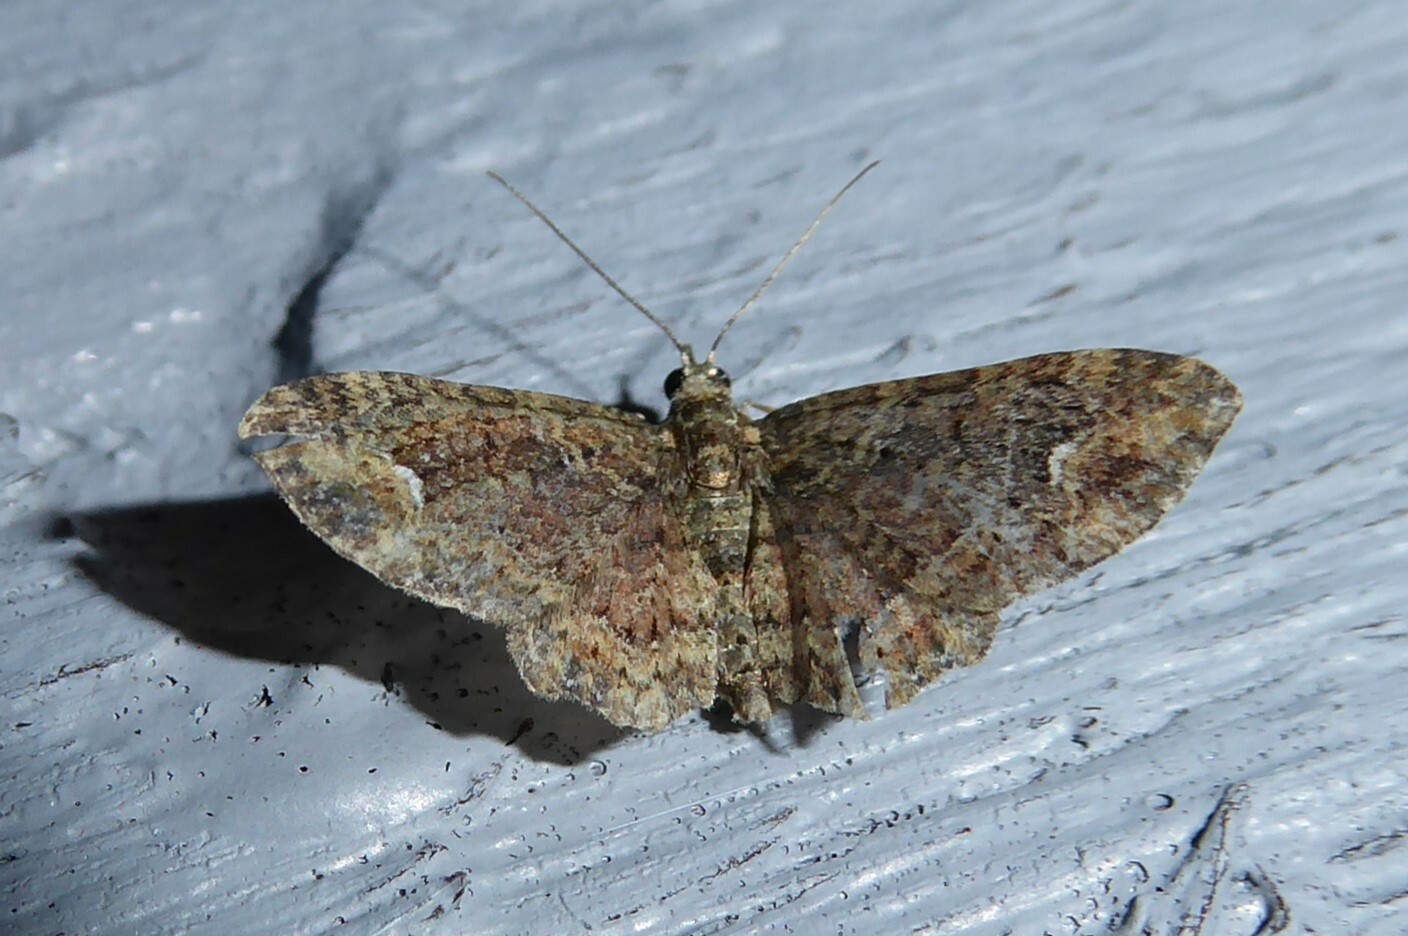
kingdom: Animalia
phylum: Arthropoda
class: Insecta
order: Lepidoptera
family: Geometridae
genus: Pasiphilodes
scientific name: Pasiphilodes testulata
